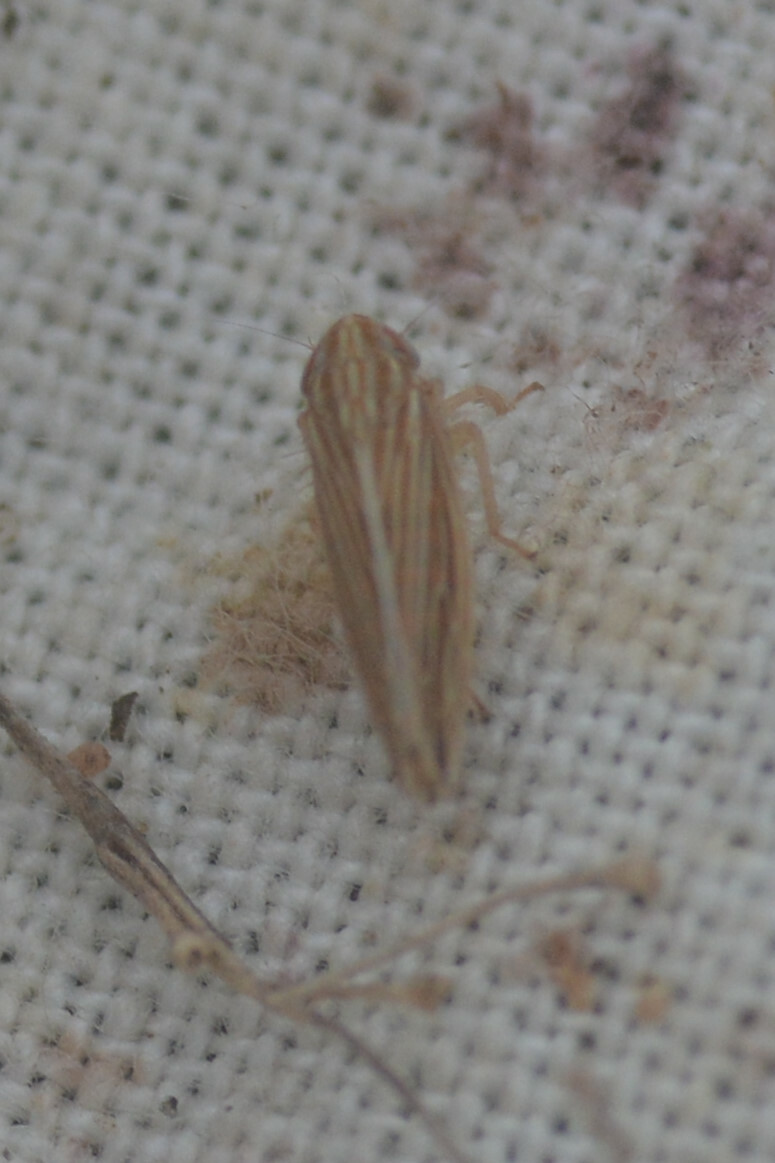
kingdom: Animalia
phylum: Arthropoda
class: Insecta
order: Hemiptera
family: Cicadellidae
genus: Mocydia
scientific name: Mocydia crocea
